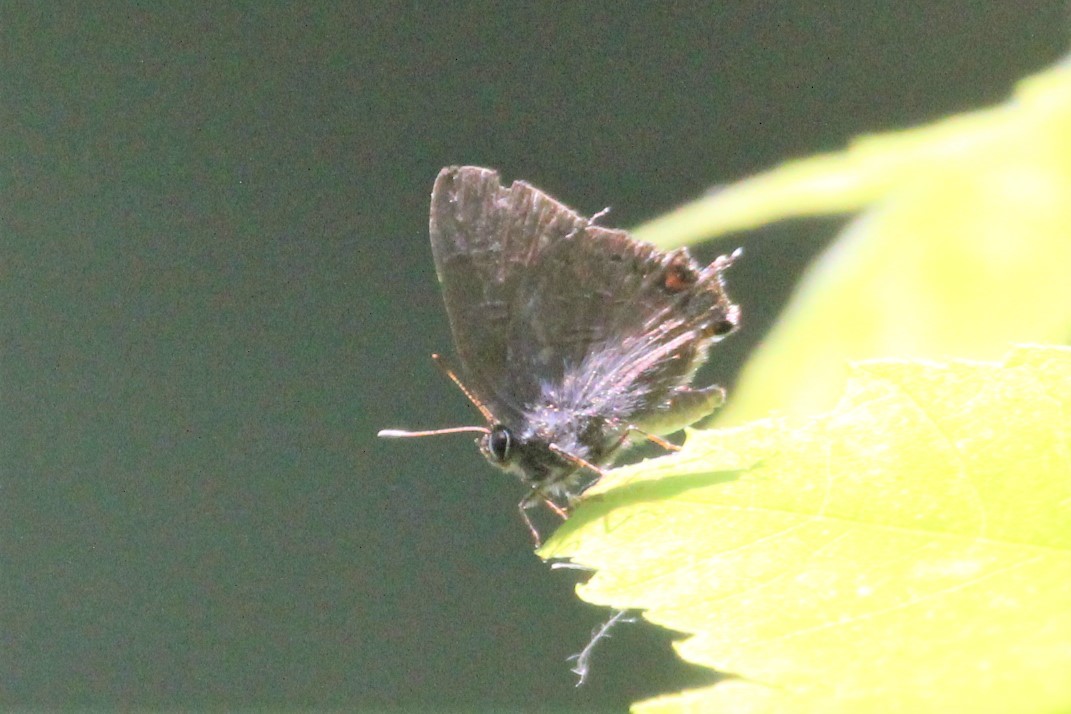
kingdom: Animalia
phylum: Arthropoda
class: Insecta
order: Lepidoptera
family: Lycaenidae
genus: Satyrium
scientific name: Satyrium calanus
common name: Banded hairstreak
